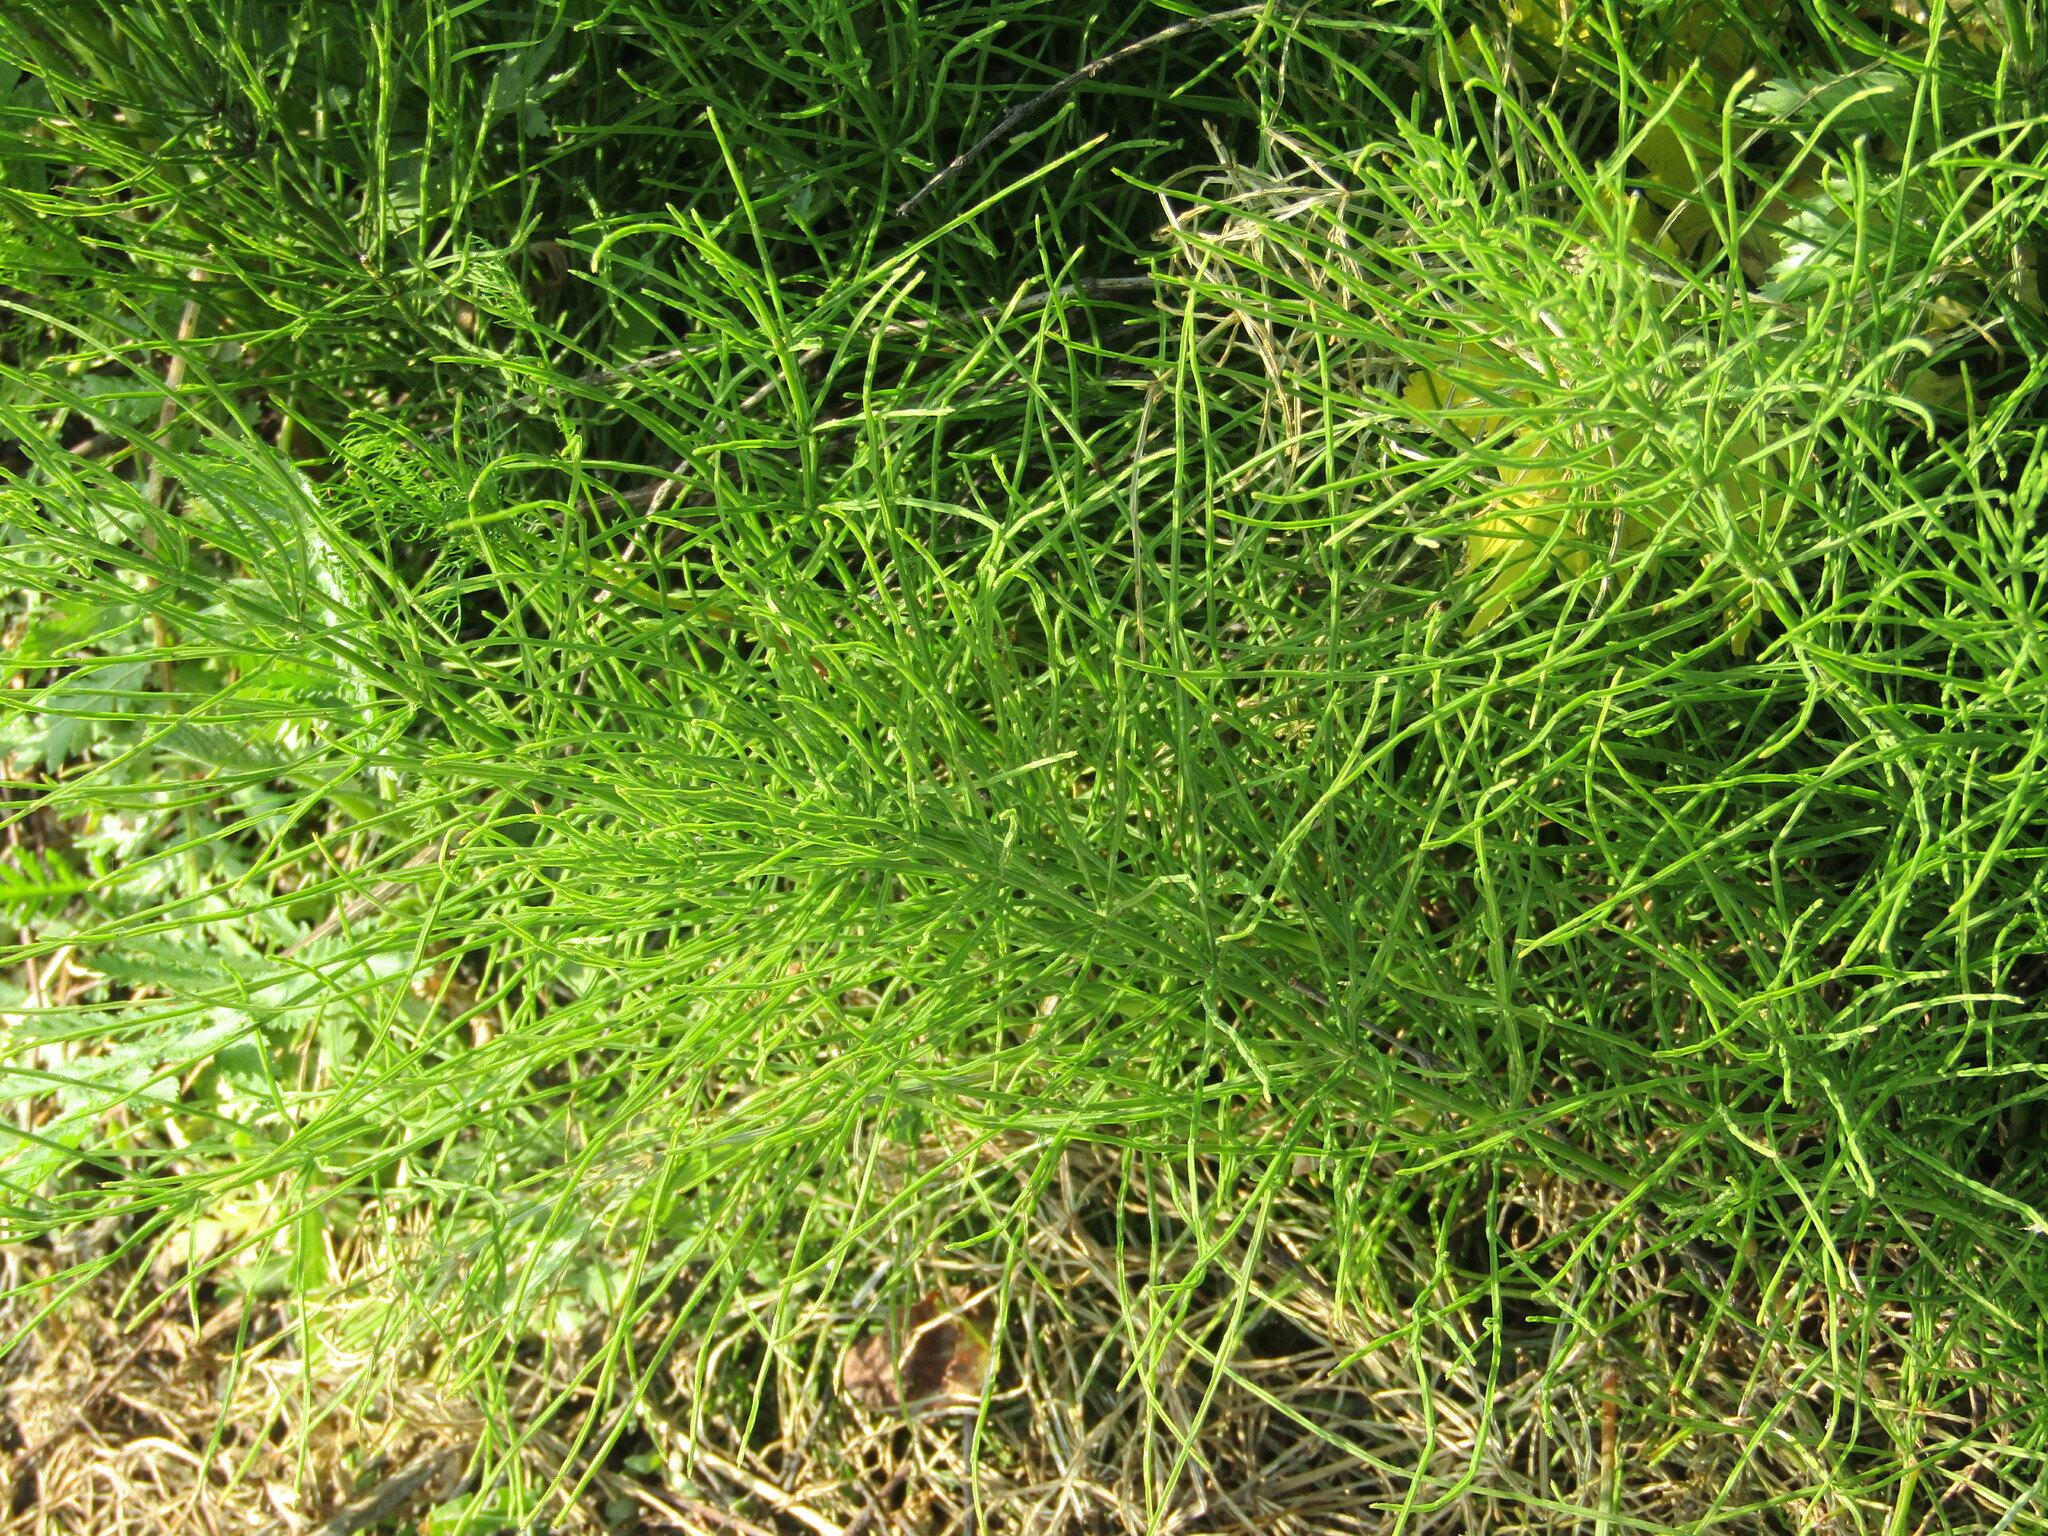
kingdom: Plantae
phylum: Tracheophyta
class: Polypodiopsida
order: Equisetales
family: Equisetaceae
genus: Equisetum
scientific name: Equisetum arvense
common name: Field horsetail
